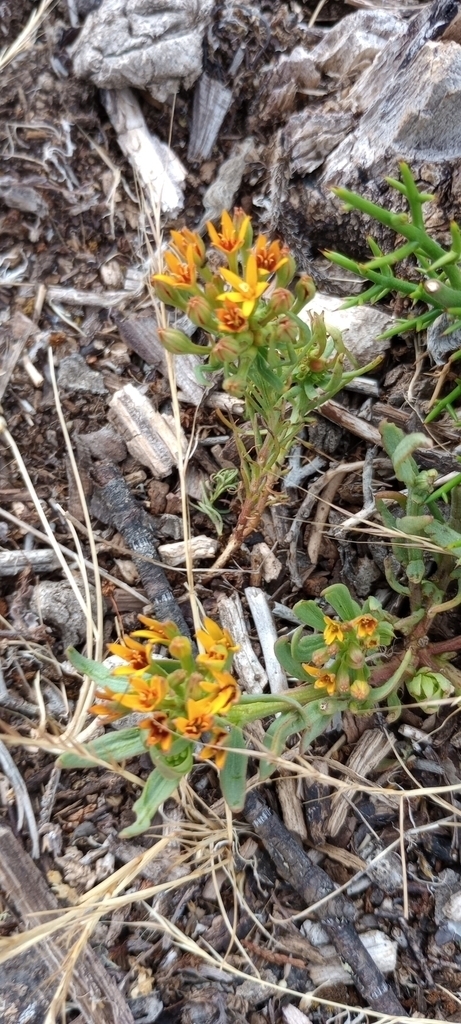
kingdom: Plantae
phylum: Tracheophyta
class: Magnoliopsida
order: Santalales
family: Schoepfiaceae
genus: Quinchamalium
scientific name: Quinchamalium chilense
